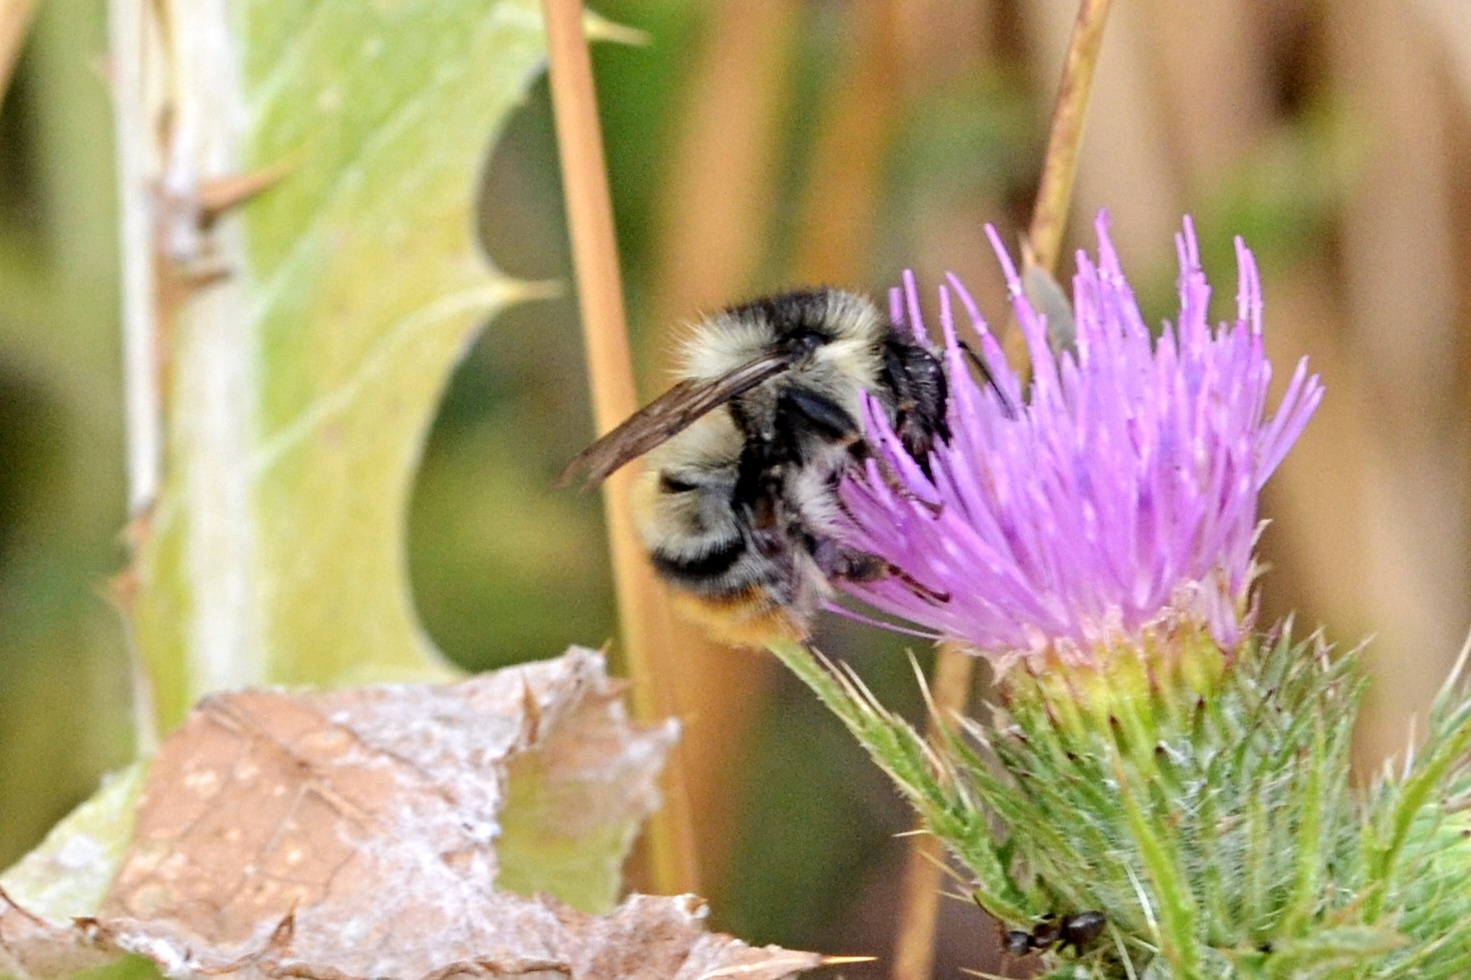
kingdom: Animalia
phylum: Arthropoda
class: Insecta
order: Hymenoptera
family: Apidae
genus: Bombus
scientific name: Bombus sylvarum
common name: Shrill carder bee
